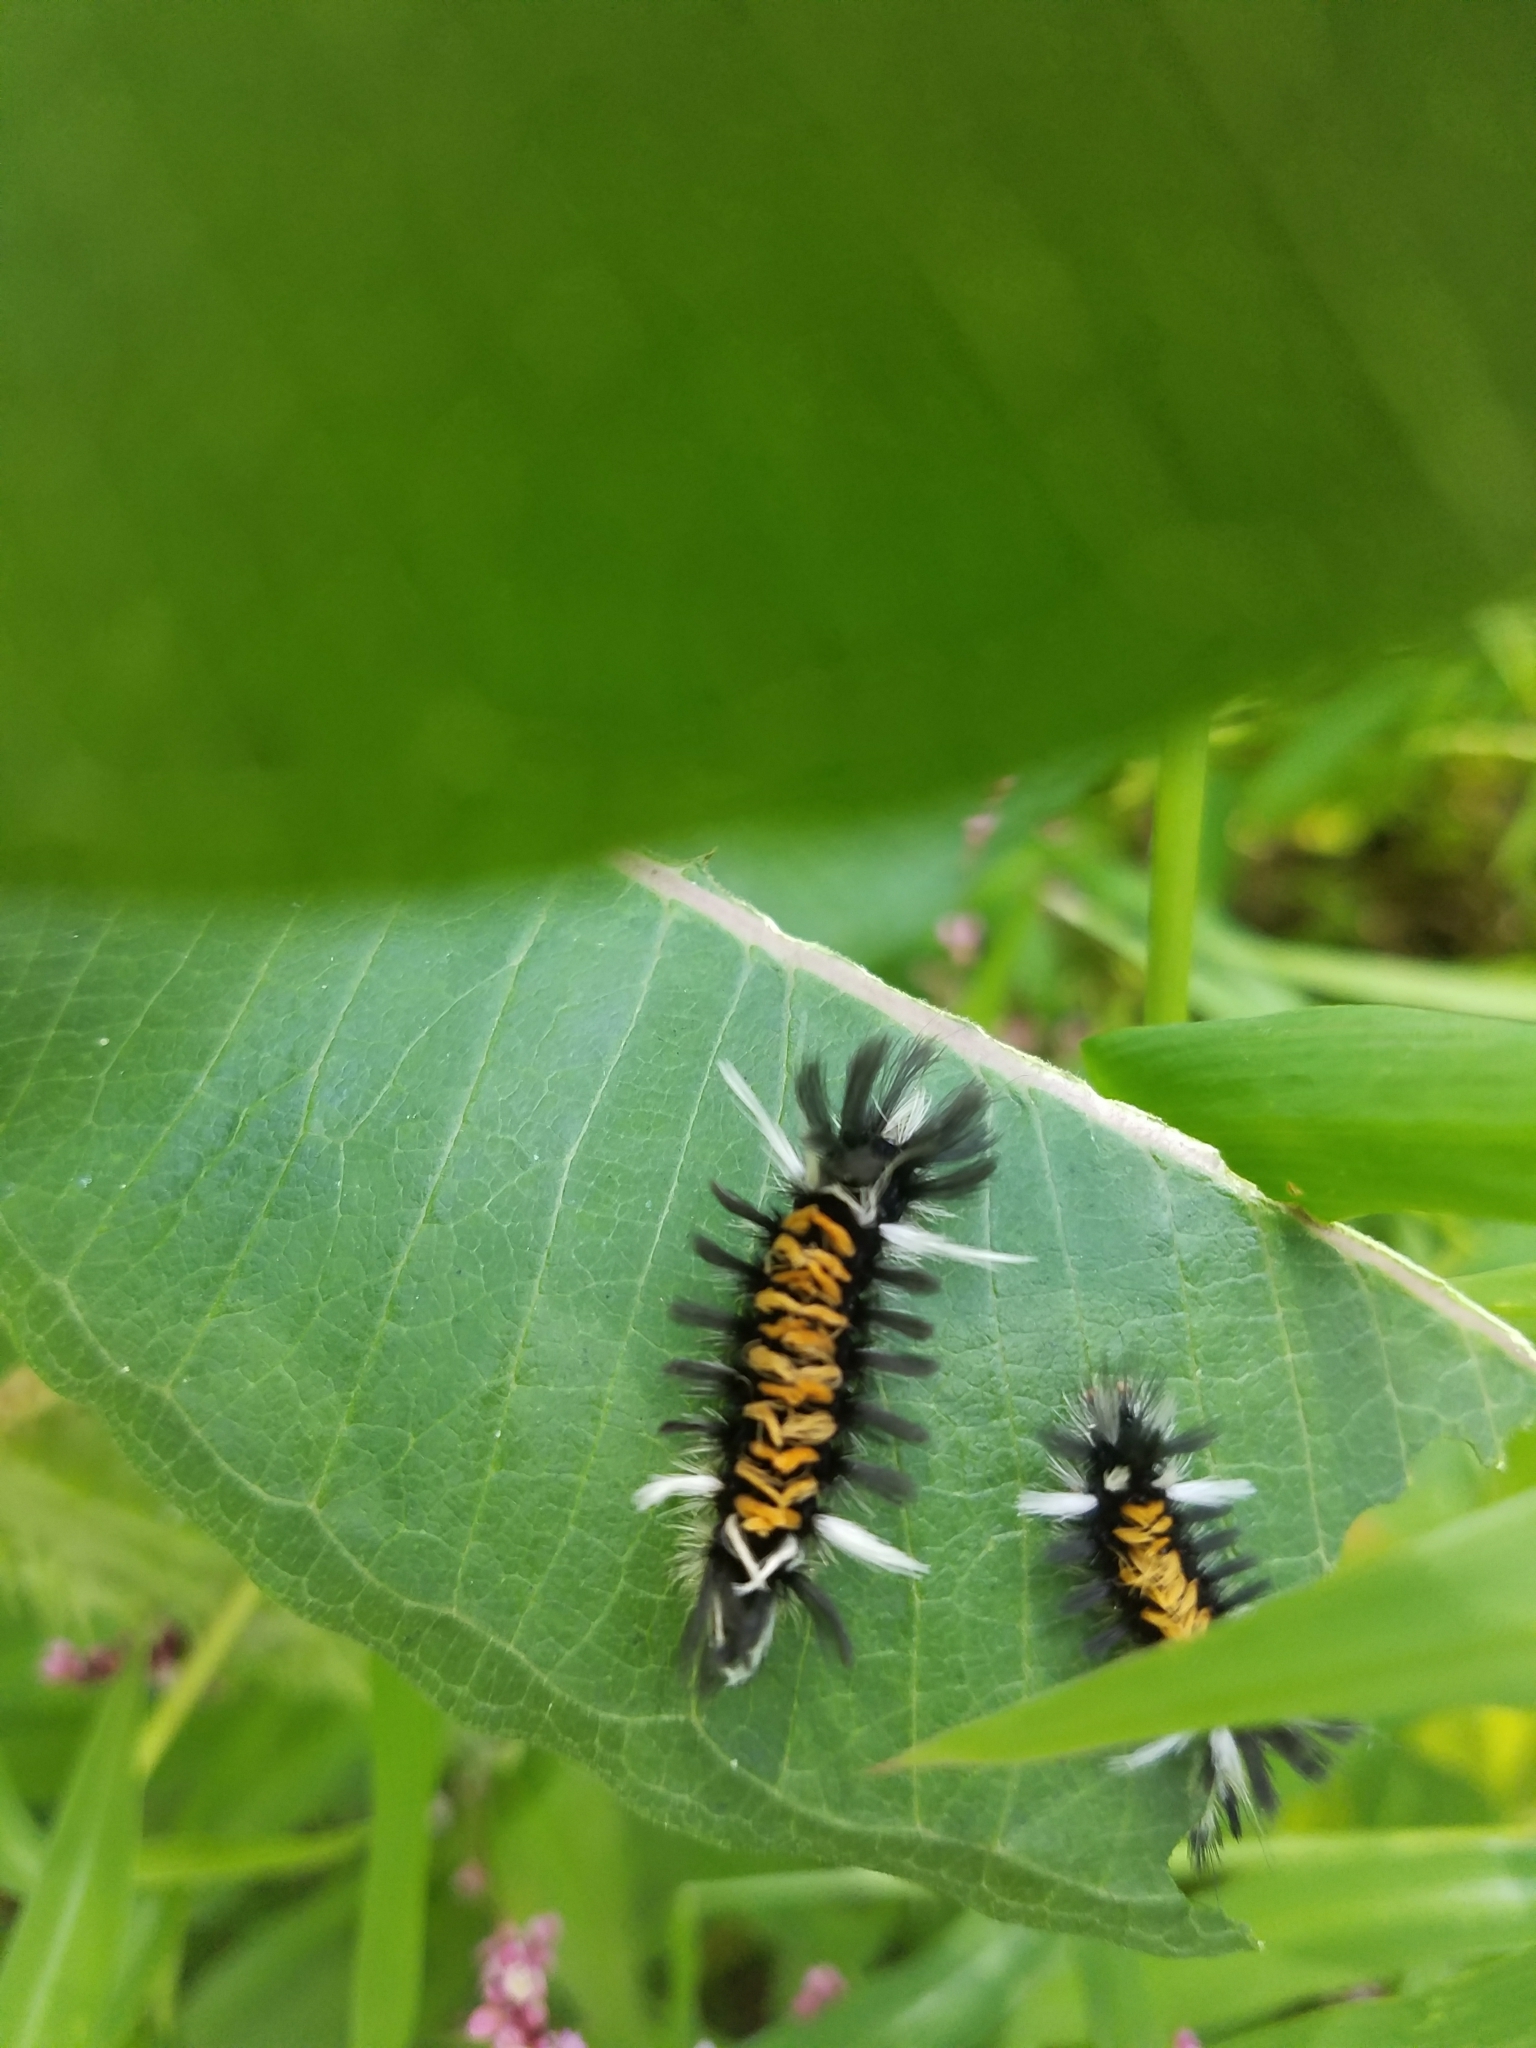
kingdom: Animalia
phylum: Arthropoda
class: Insecta
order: Lepidoptera
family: Erebidae
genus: Euchaetes
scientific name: Euchaetes egle
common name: Milkweed tussock moth
